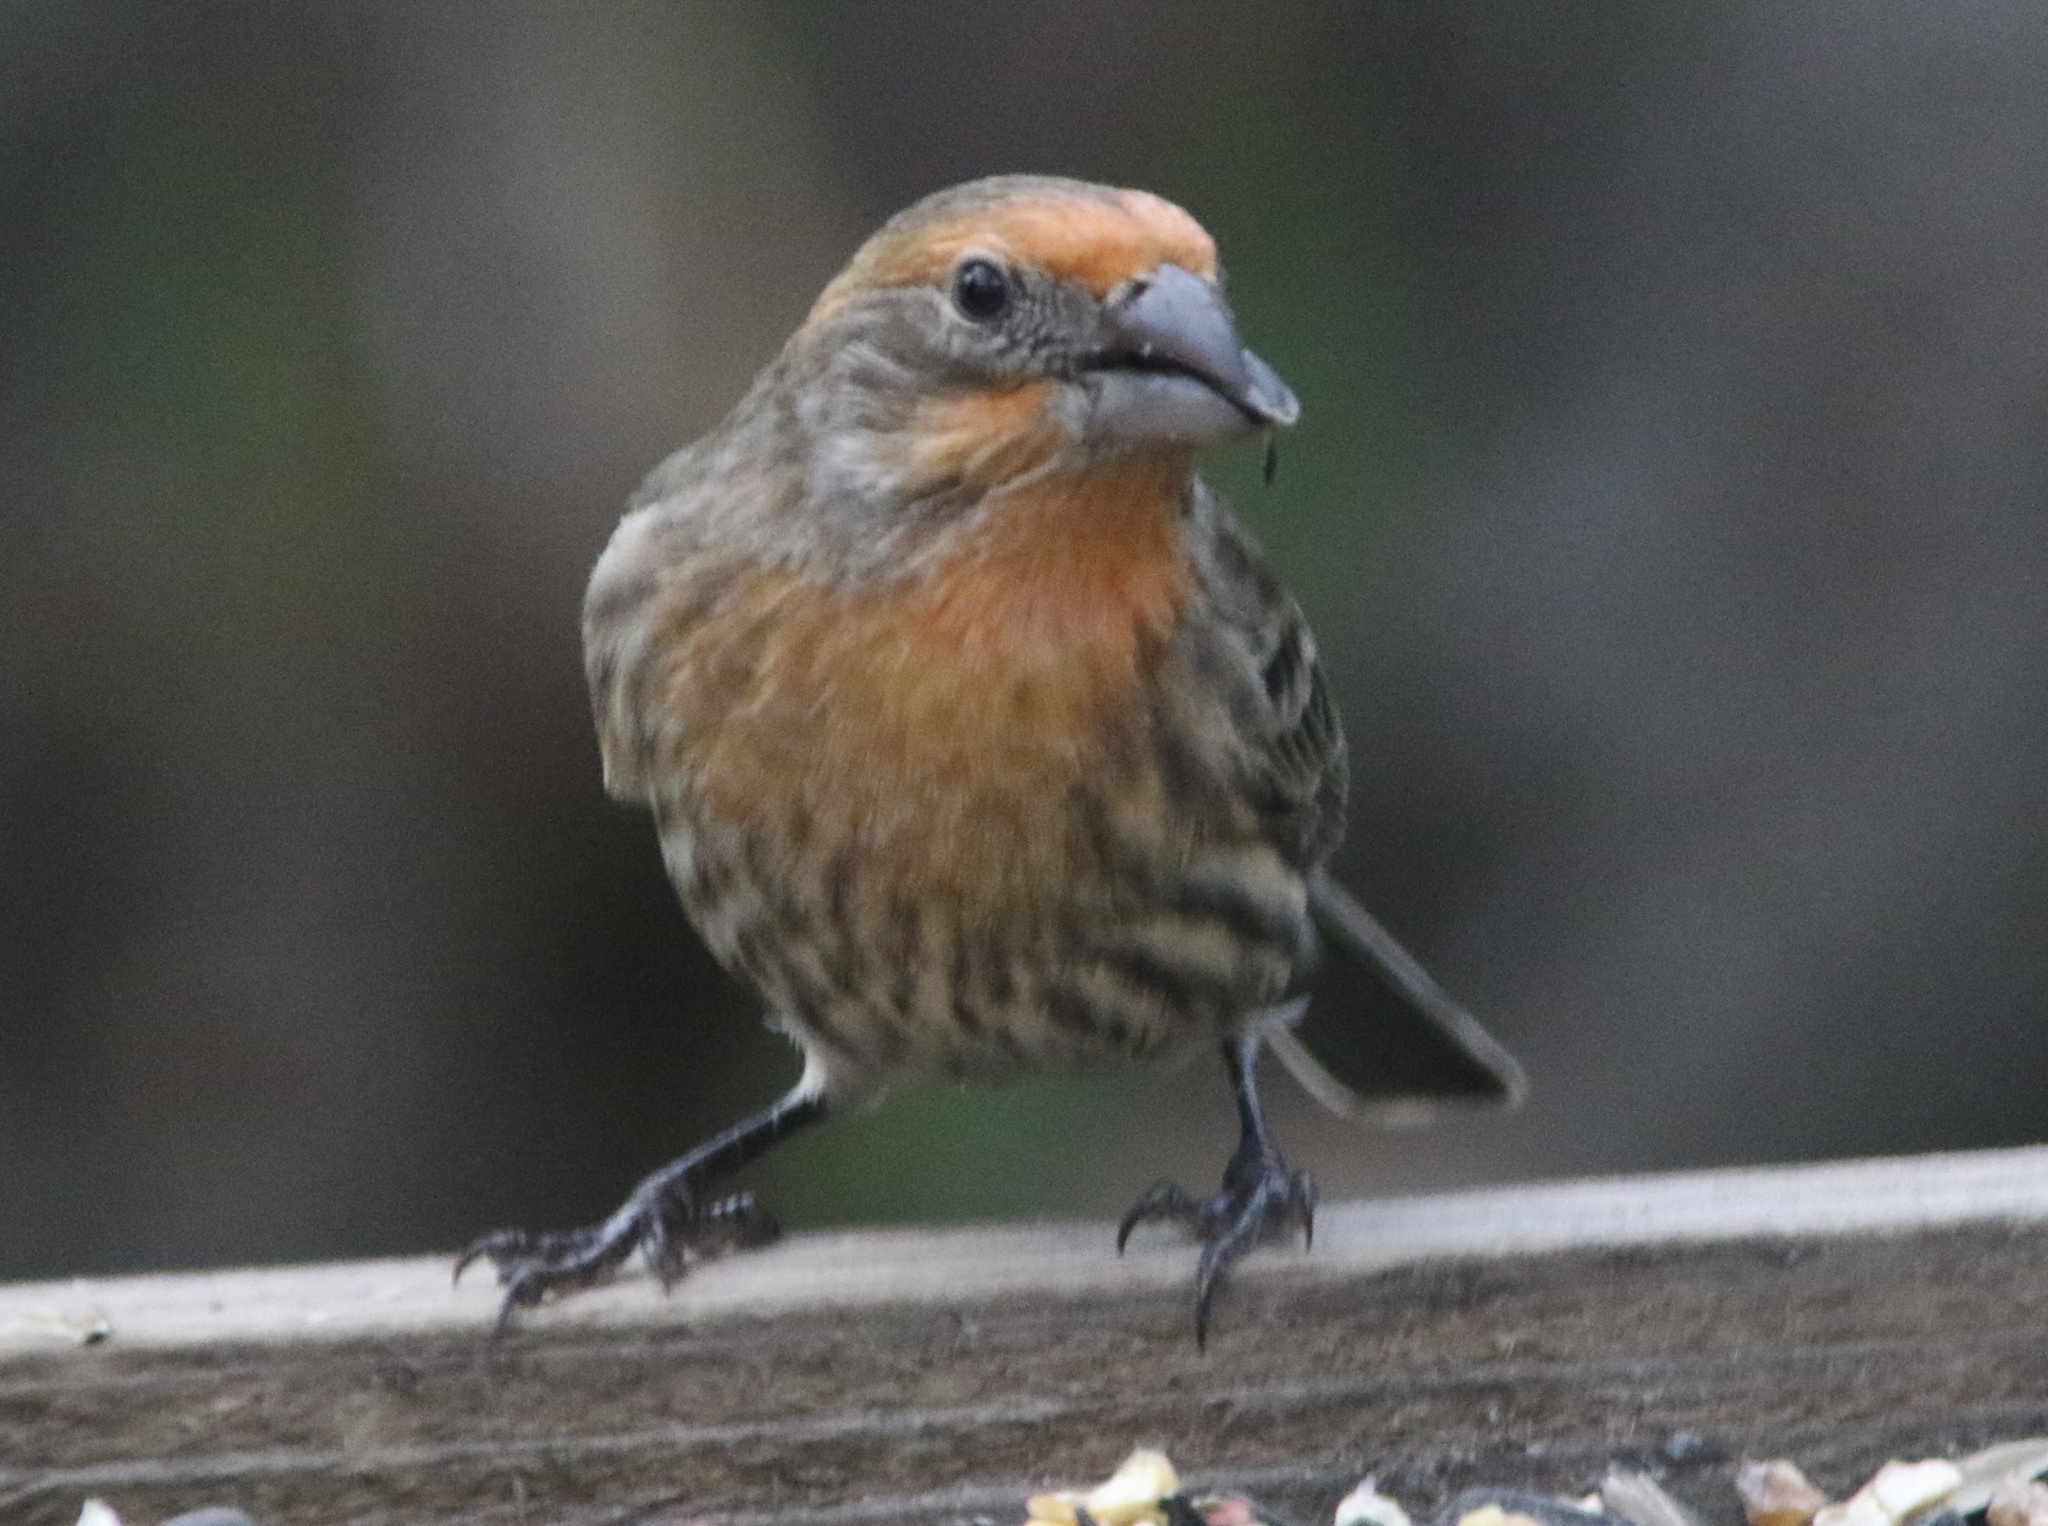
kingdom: Animalia
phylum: Chordata
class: Aves
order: Passeriformes
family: Fringillidae
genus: Haemorhous
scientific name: Haemorhous mexicanus
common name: House finch
